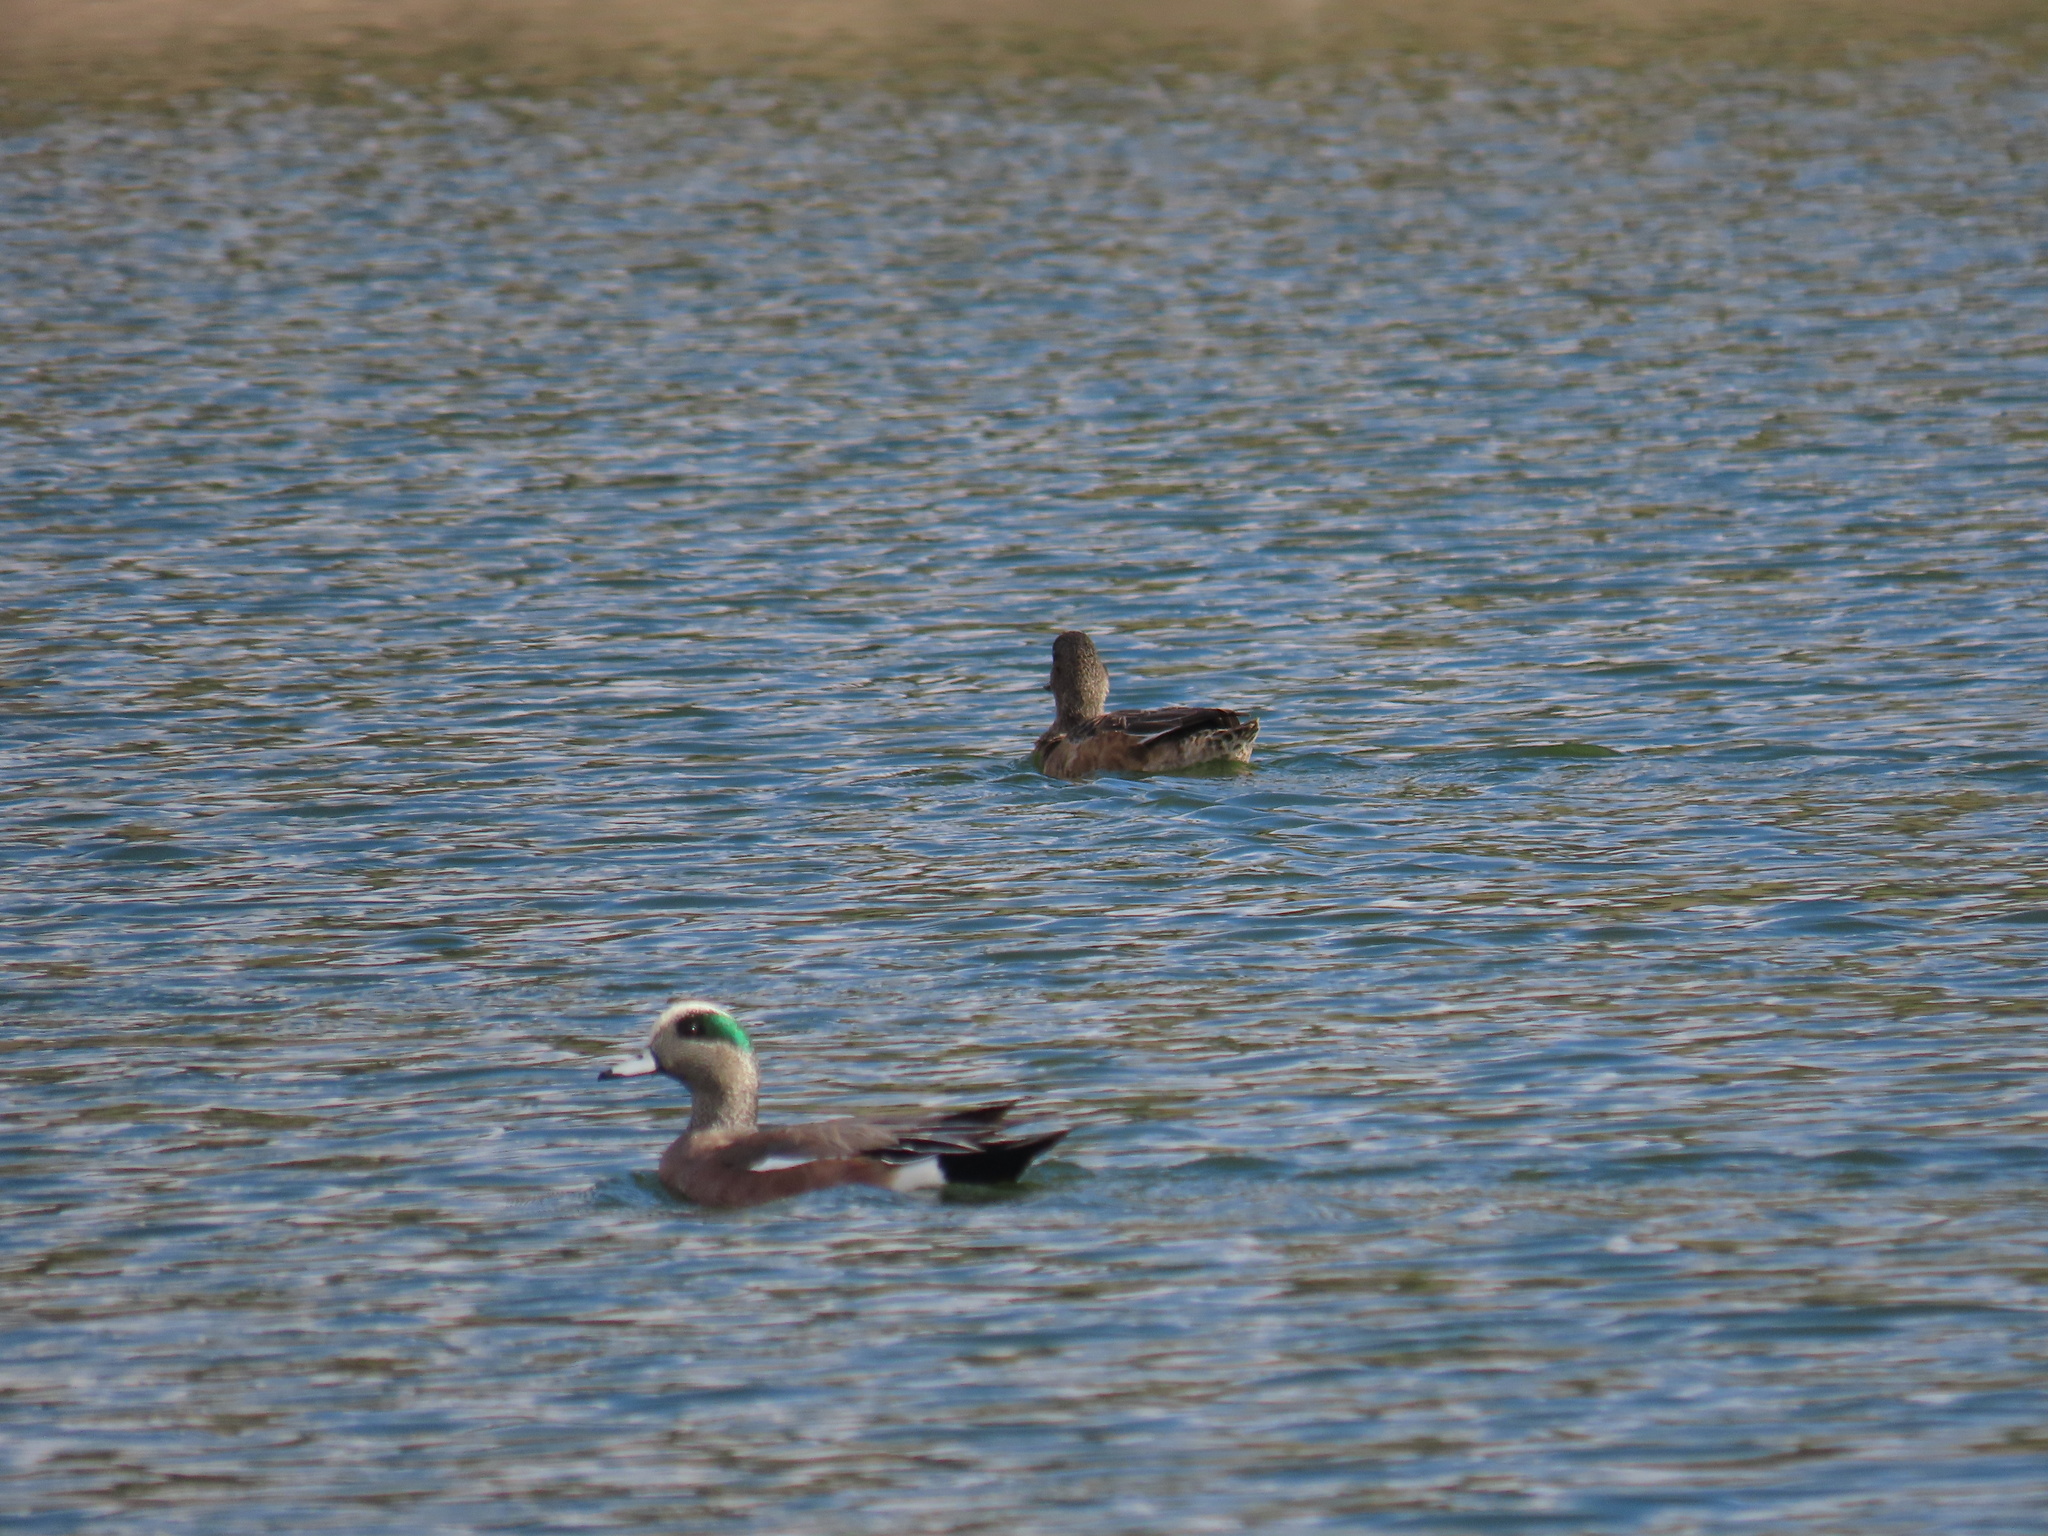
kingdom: Animalia
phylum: Chordata
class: Aves
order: Anseriformes
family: Anatidae
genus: Mareca
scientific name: Mareca americana
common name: American wigeon
